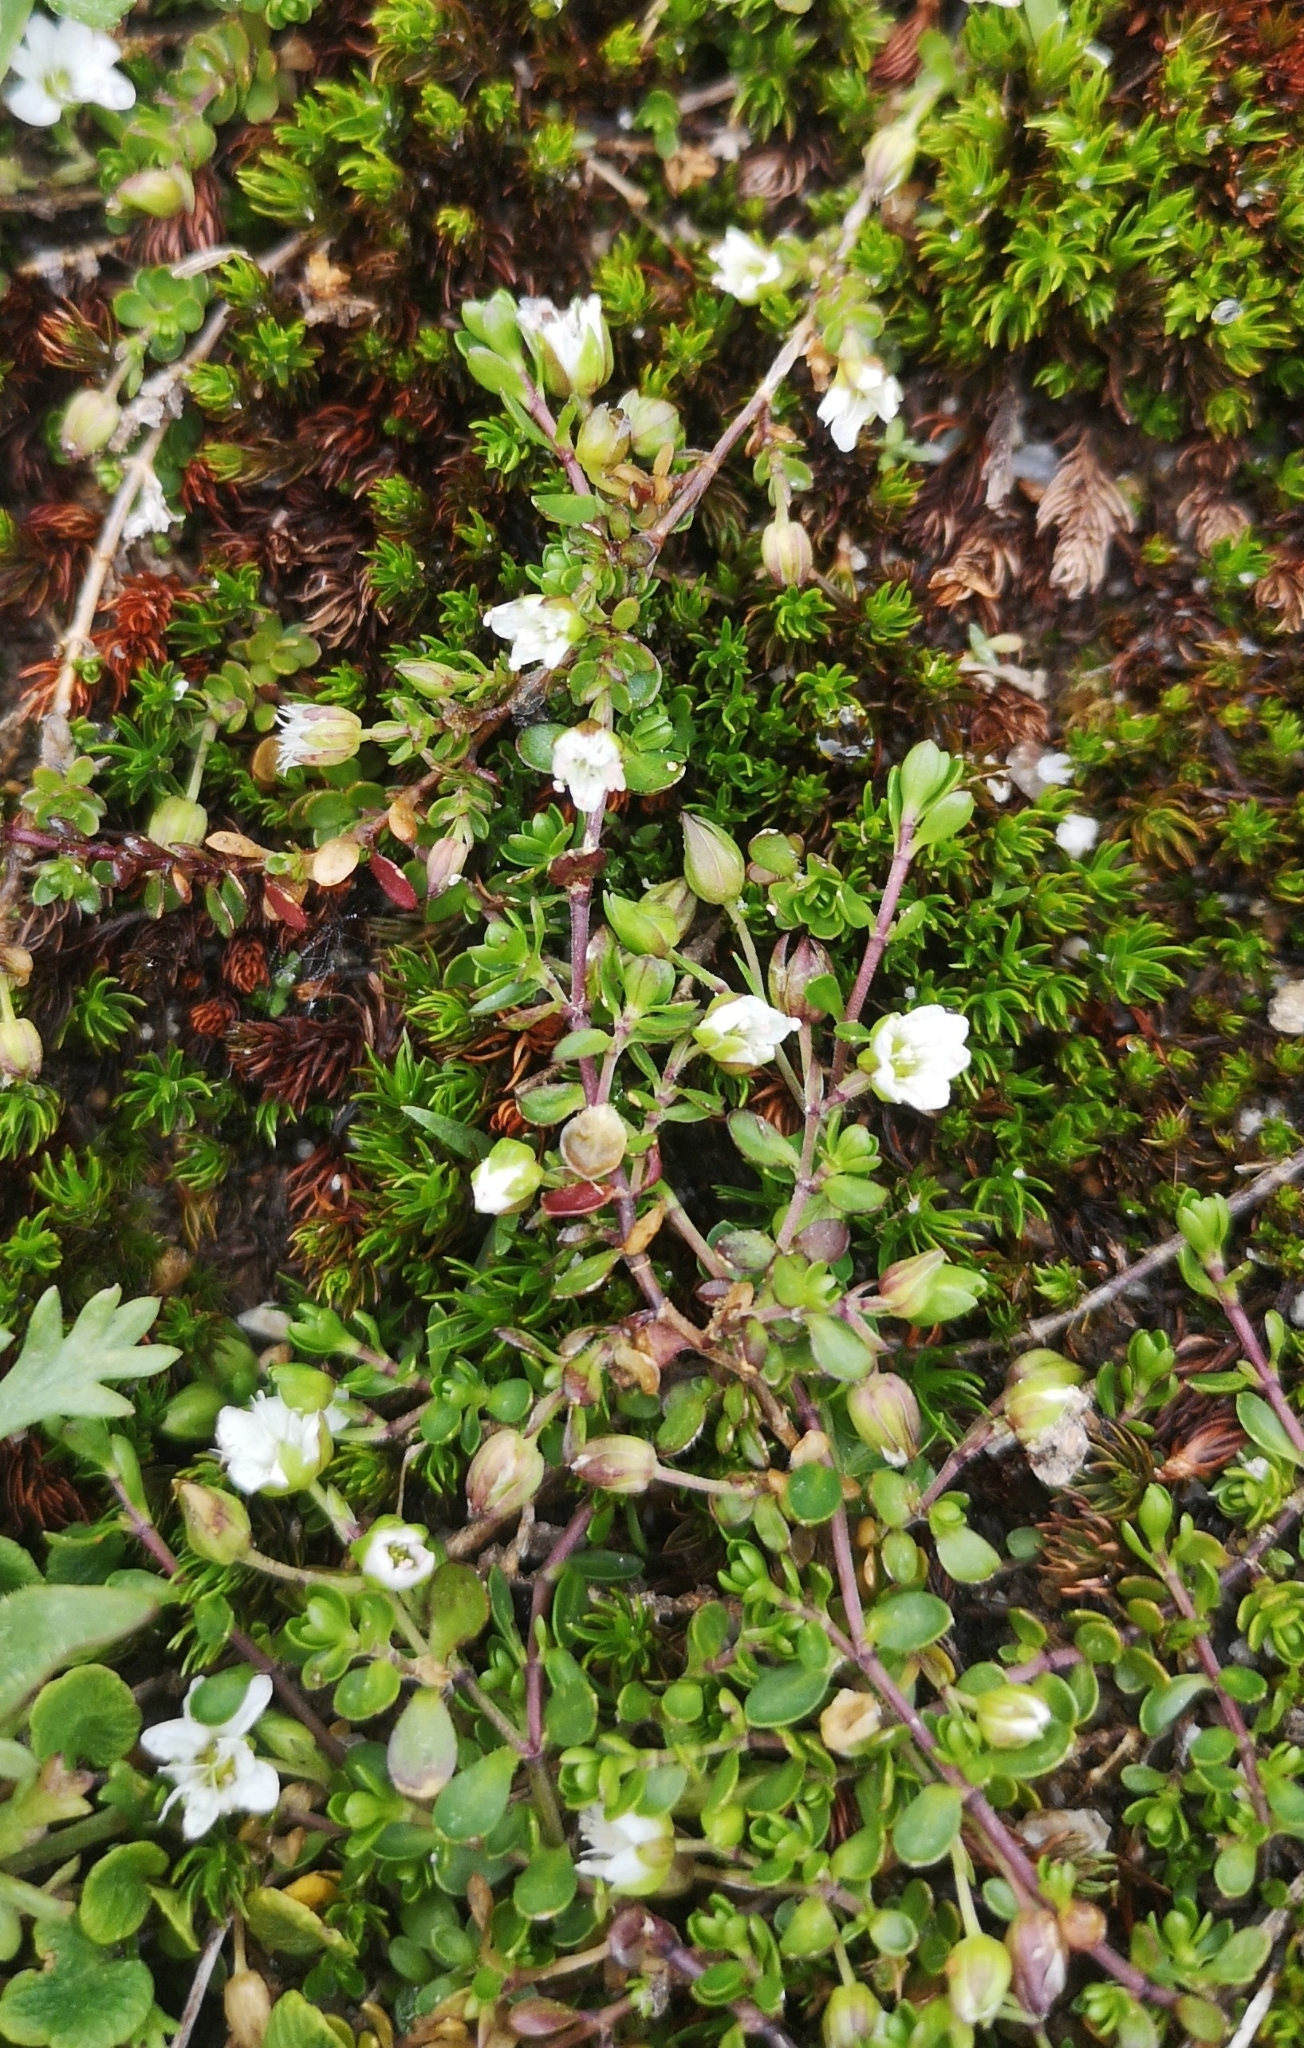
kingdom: Plantae
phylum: Tracheophyta
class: Magnoliopsida
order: Caryophyllales
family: Caryophyllaceae
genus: Arenaria
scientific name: Arenaria biflora
